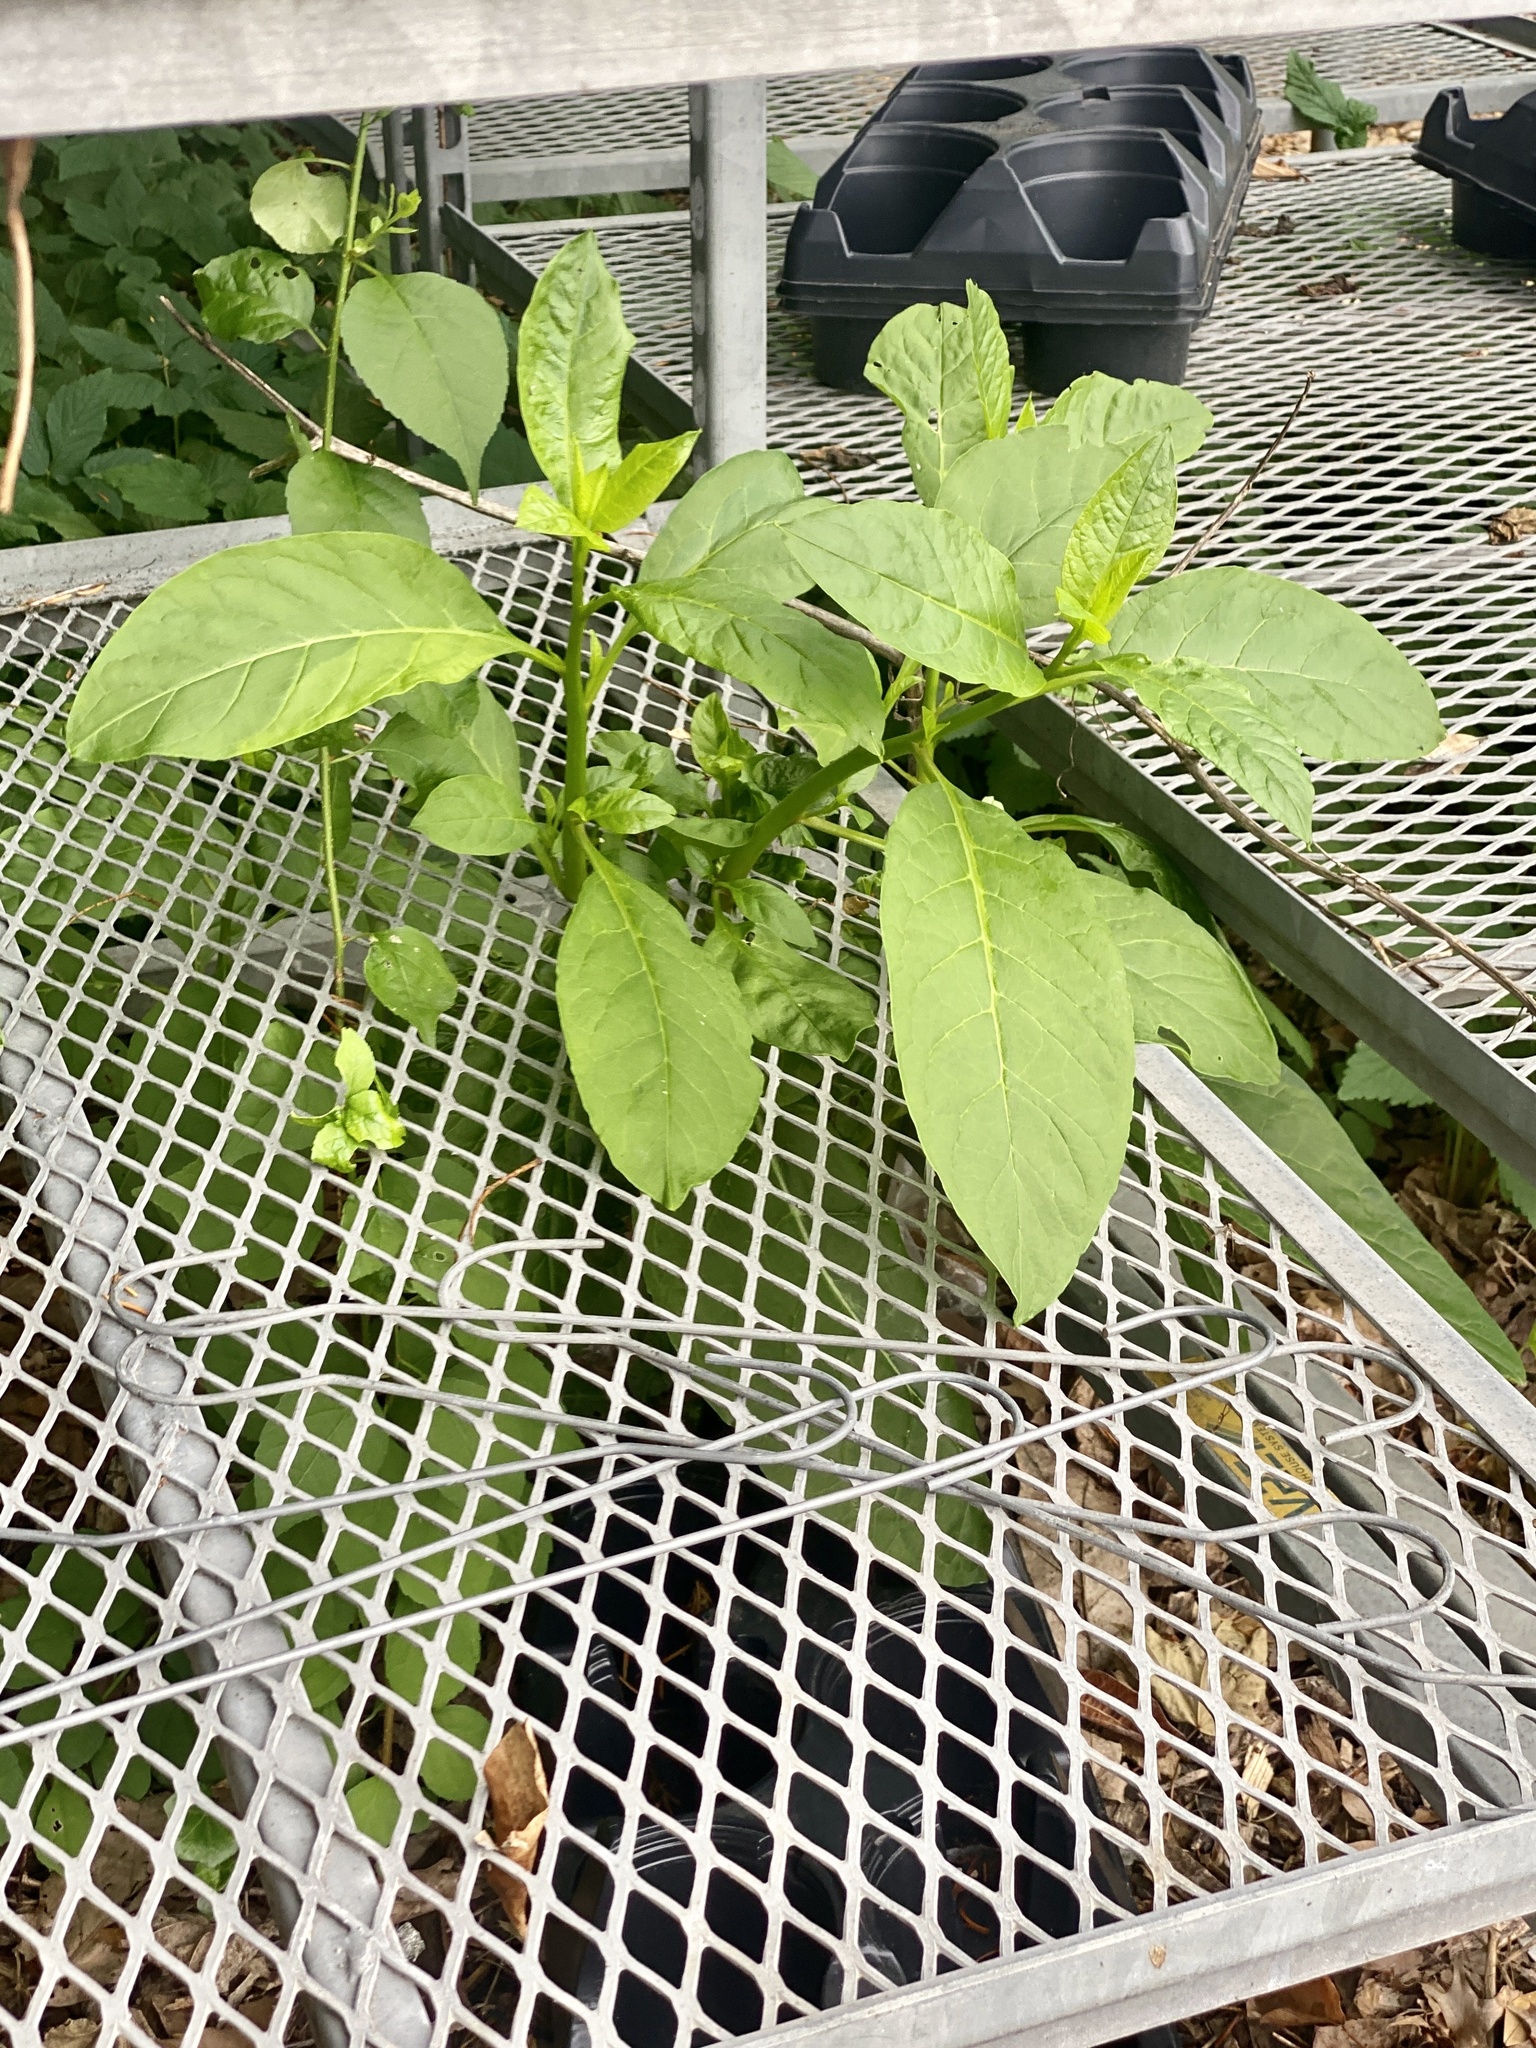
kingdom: Plantae
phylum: Tracheophyta
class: Magnoliopsida
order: Caryophyllales
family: Phytolaccaceae
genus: Phytolacca
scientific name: Phytolacca americana
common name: American pokeweed
